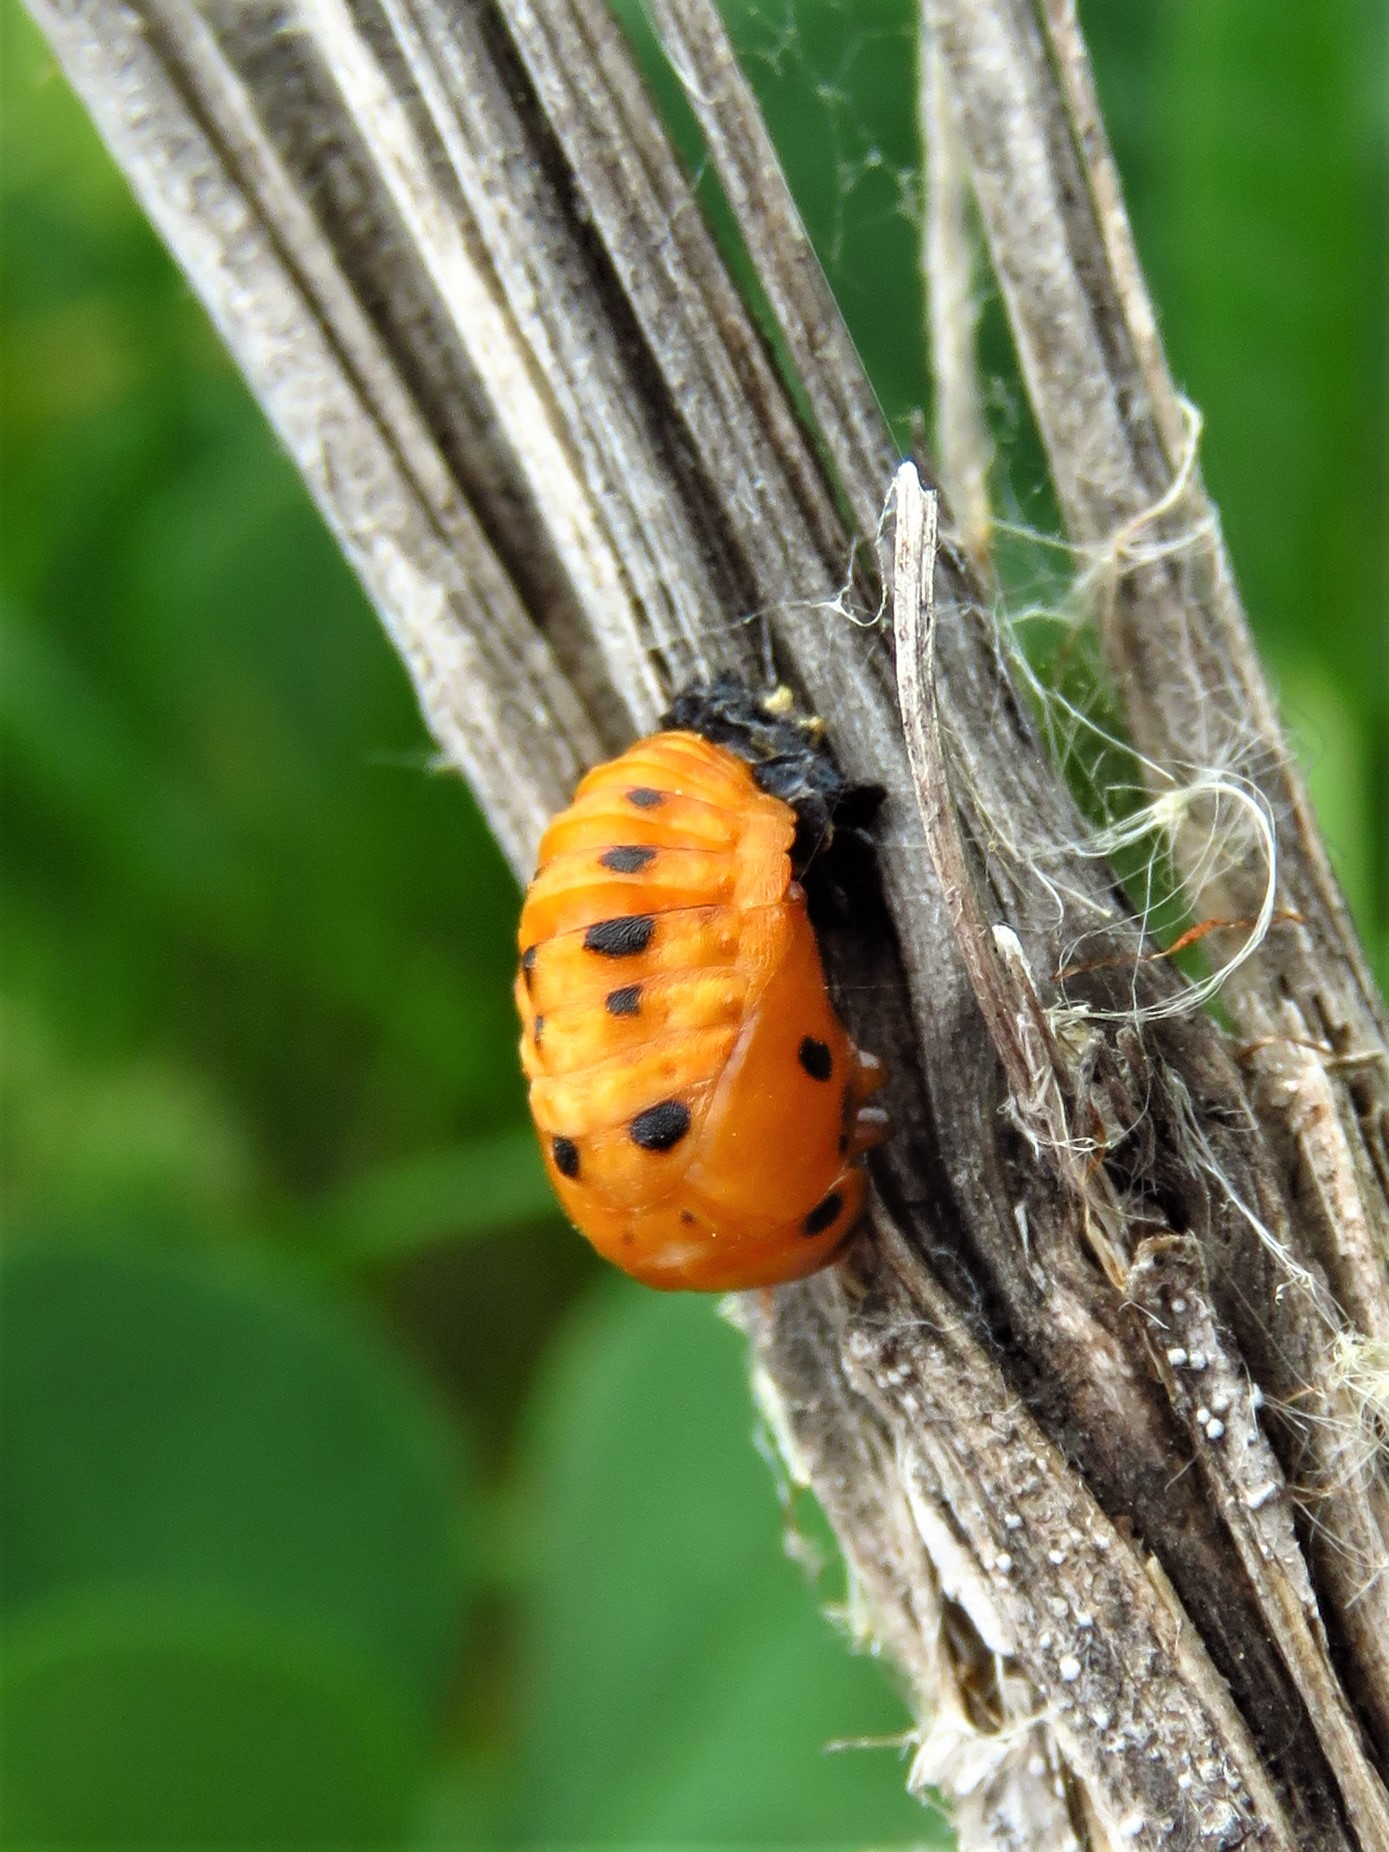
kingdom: Animalia
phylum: Arthropoda
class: Insecta
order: Coleoptera
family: Coccinellidae
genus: Coccinella
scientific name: Coccinella septempunctata
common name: Sevenspotted lady beetle
